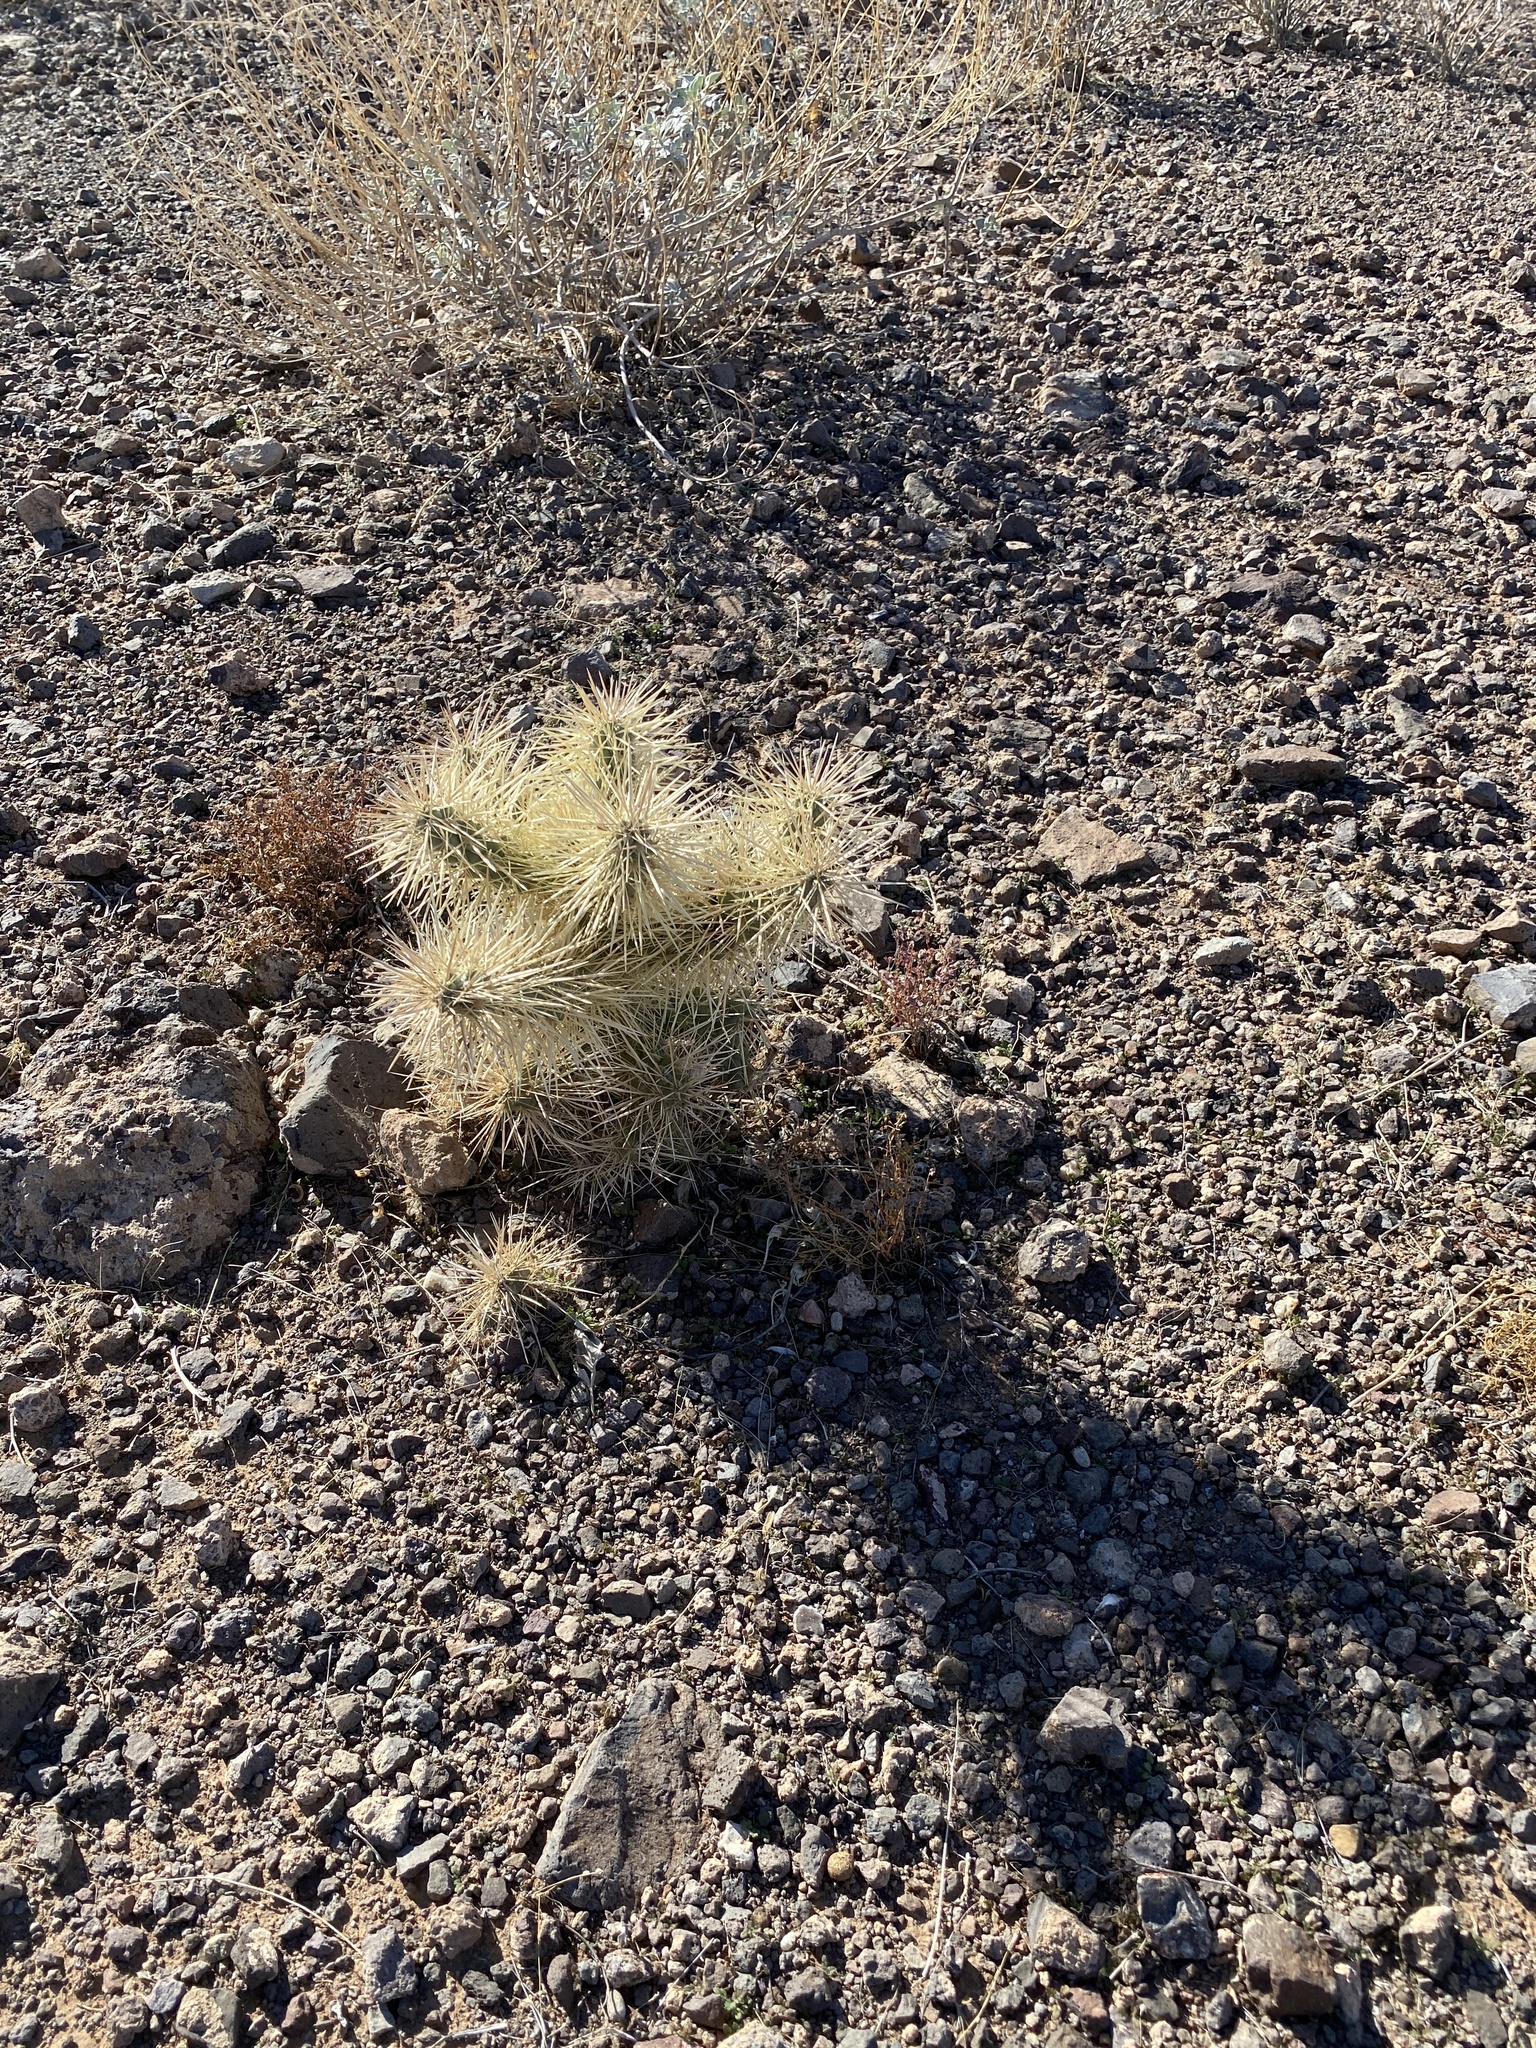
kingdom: Plantae
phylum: Tracheophyta
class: Magnoliopsida
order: Caryophyllales
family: Cactaceae
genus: Cylindropuntia
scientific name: Cylindropuntia fulgida
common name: Jumping cholla
